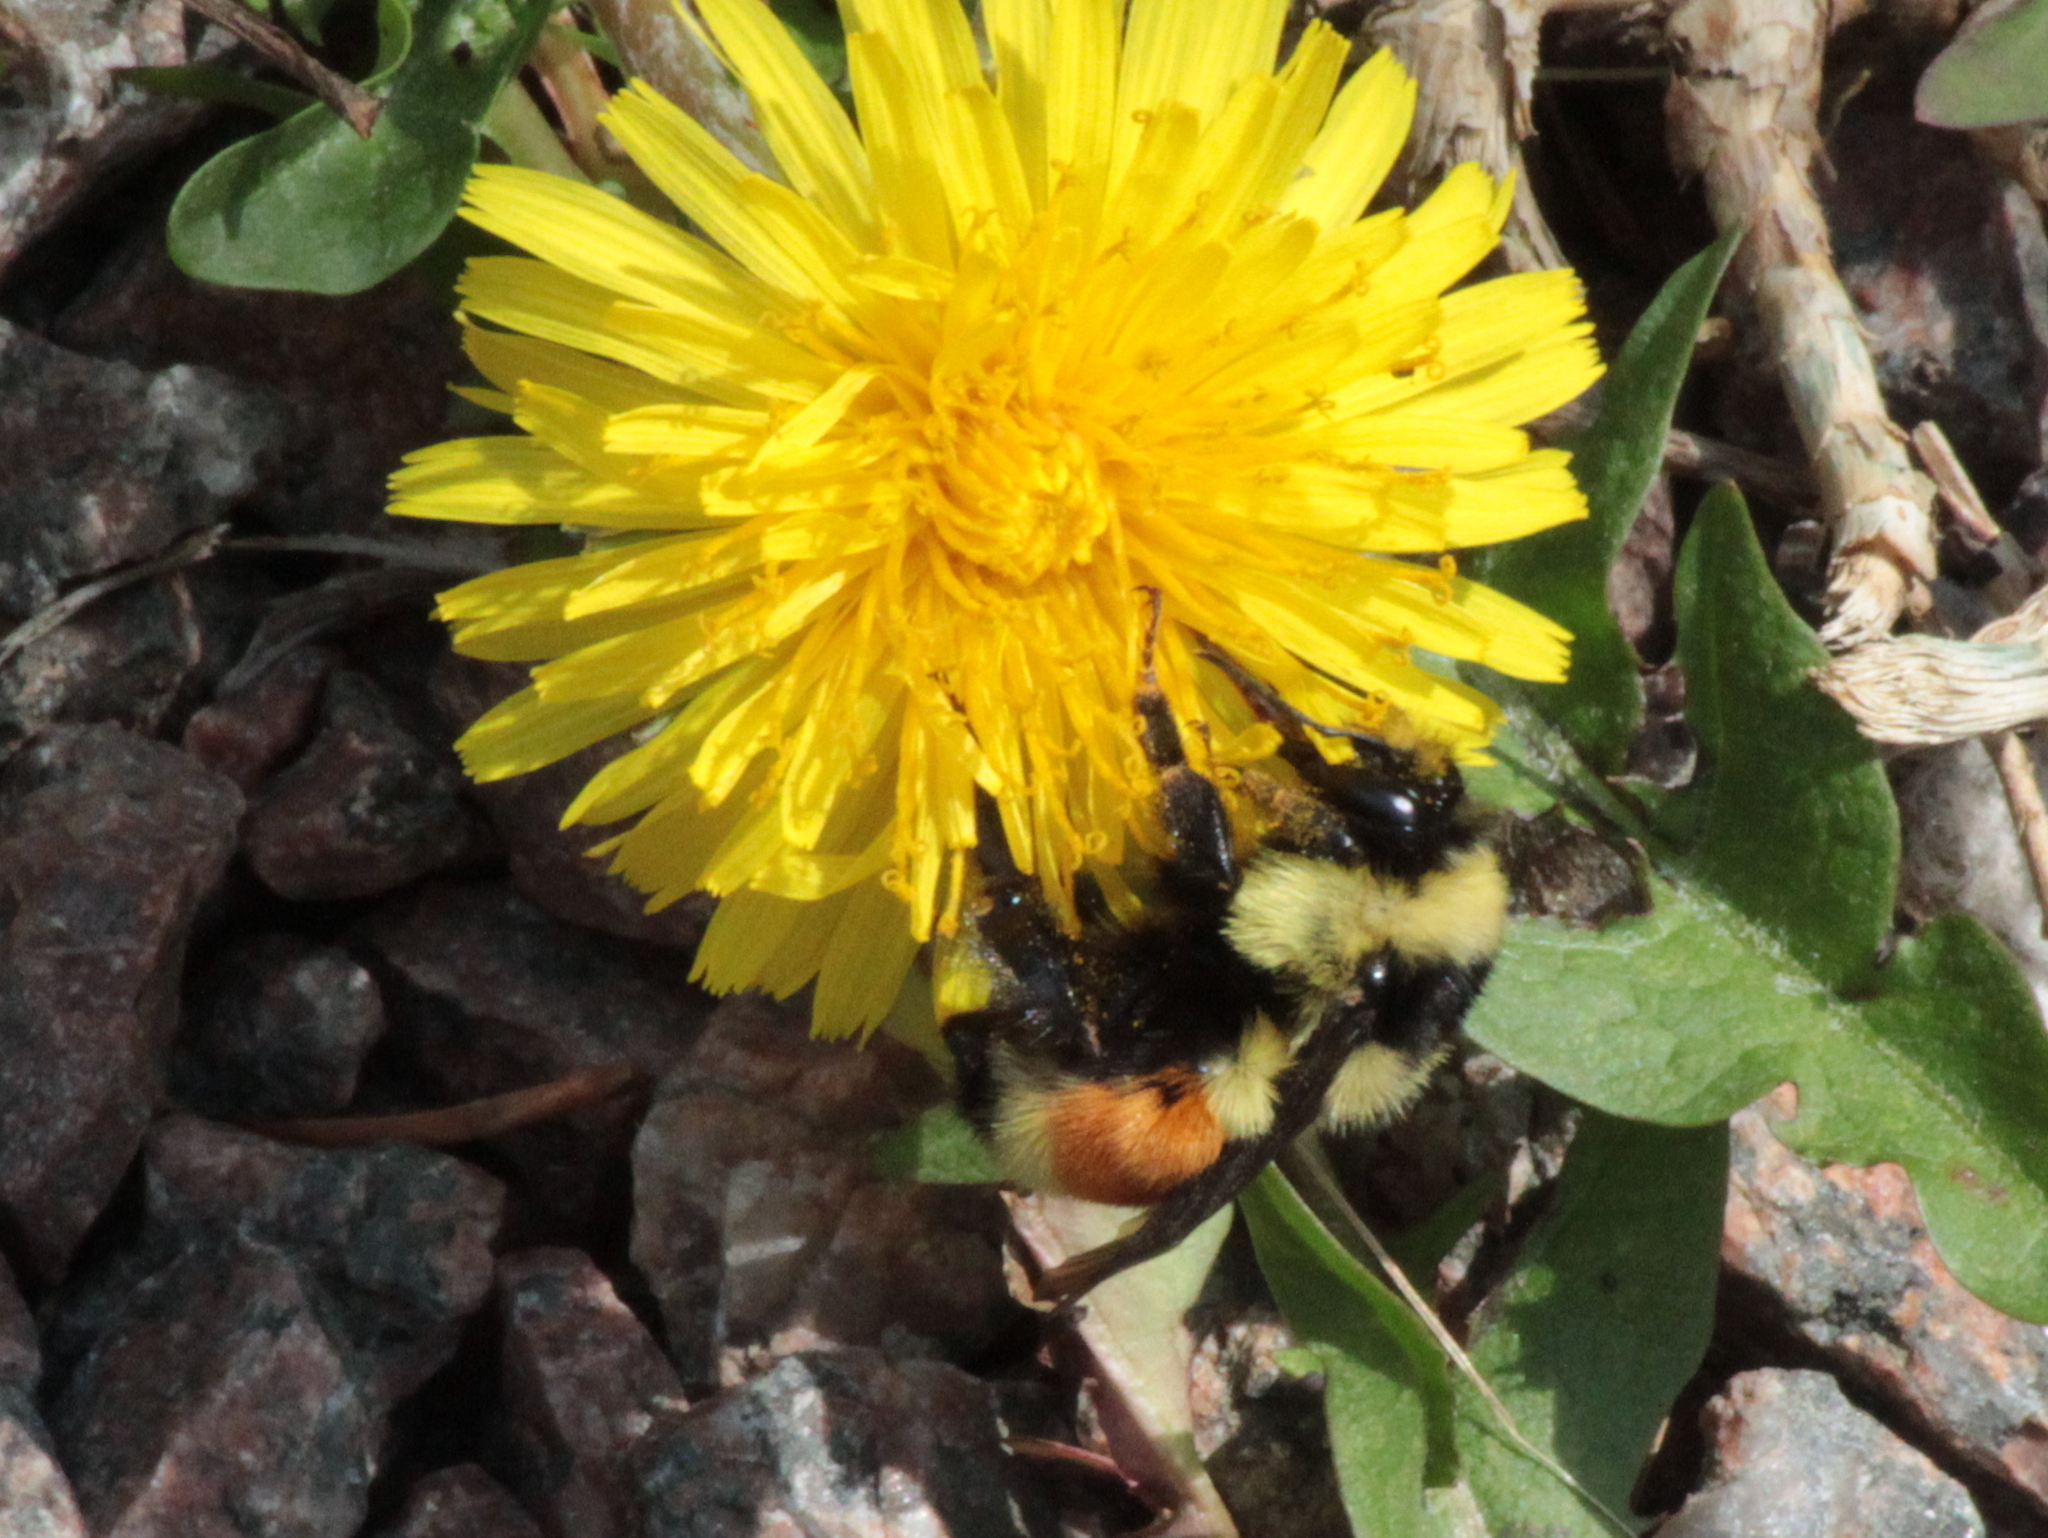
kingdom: Animalia
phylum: Arthropoda
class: Insecta
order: Hymenoptera
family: Apidae
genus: Bombus
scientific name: Bombus ternarius
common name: Tri-colored bumble bee
